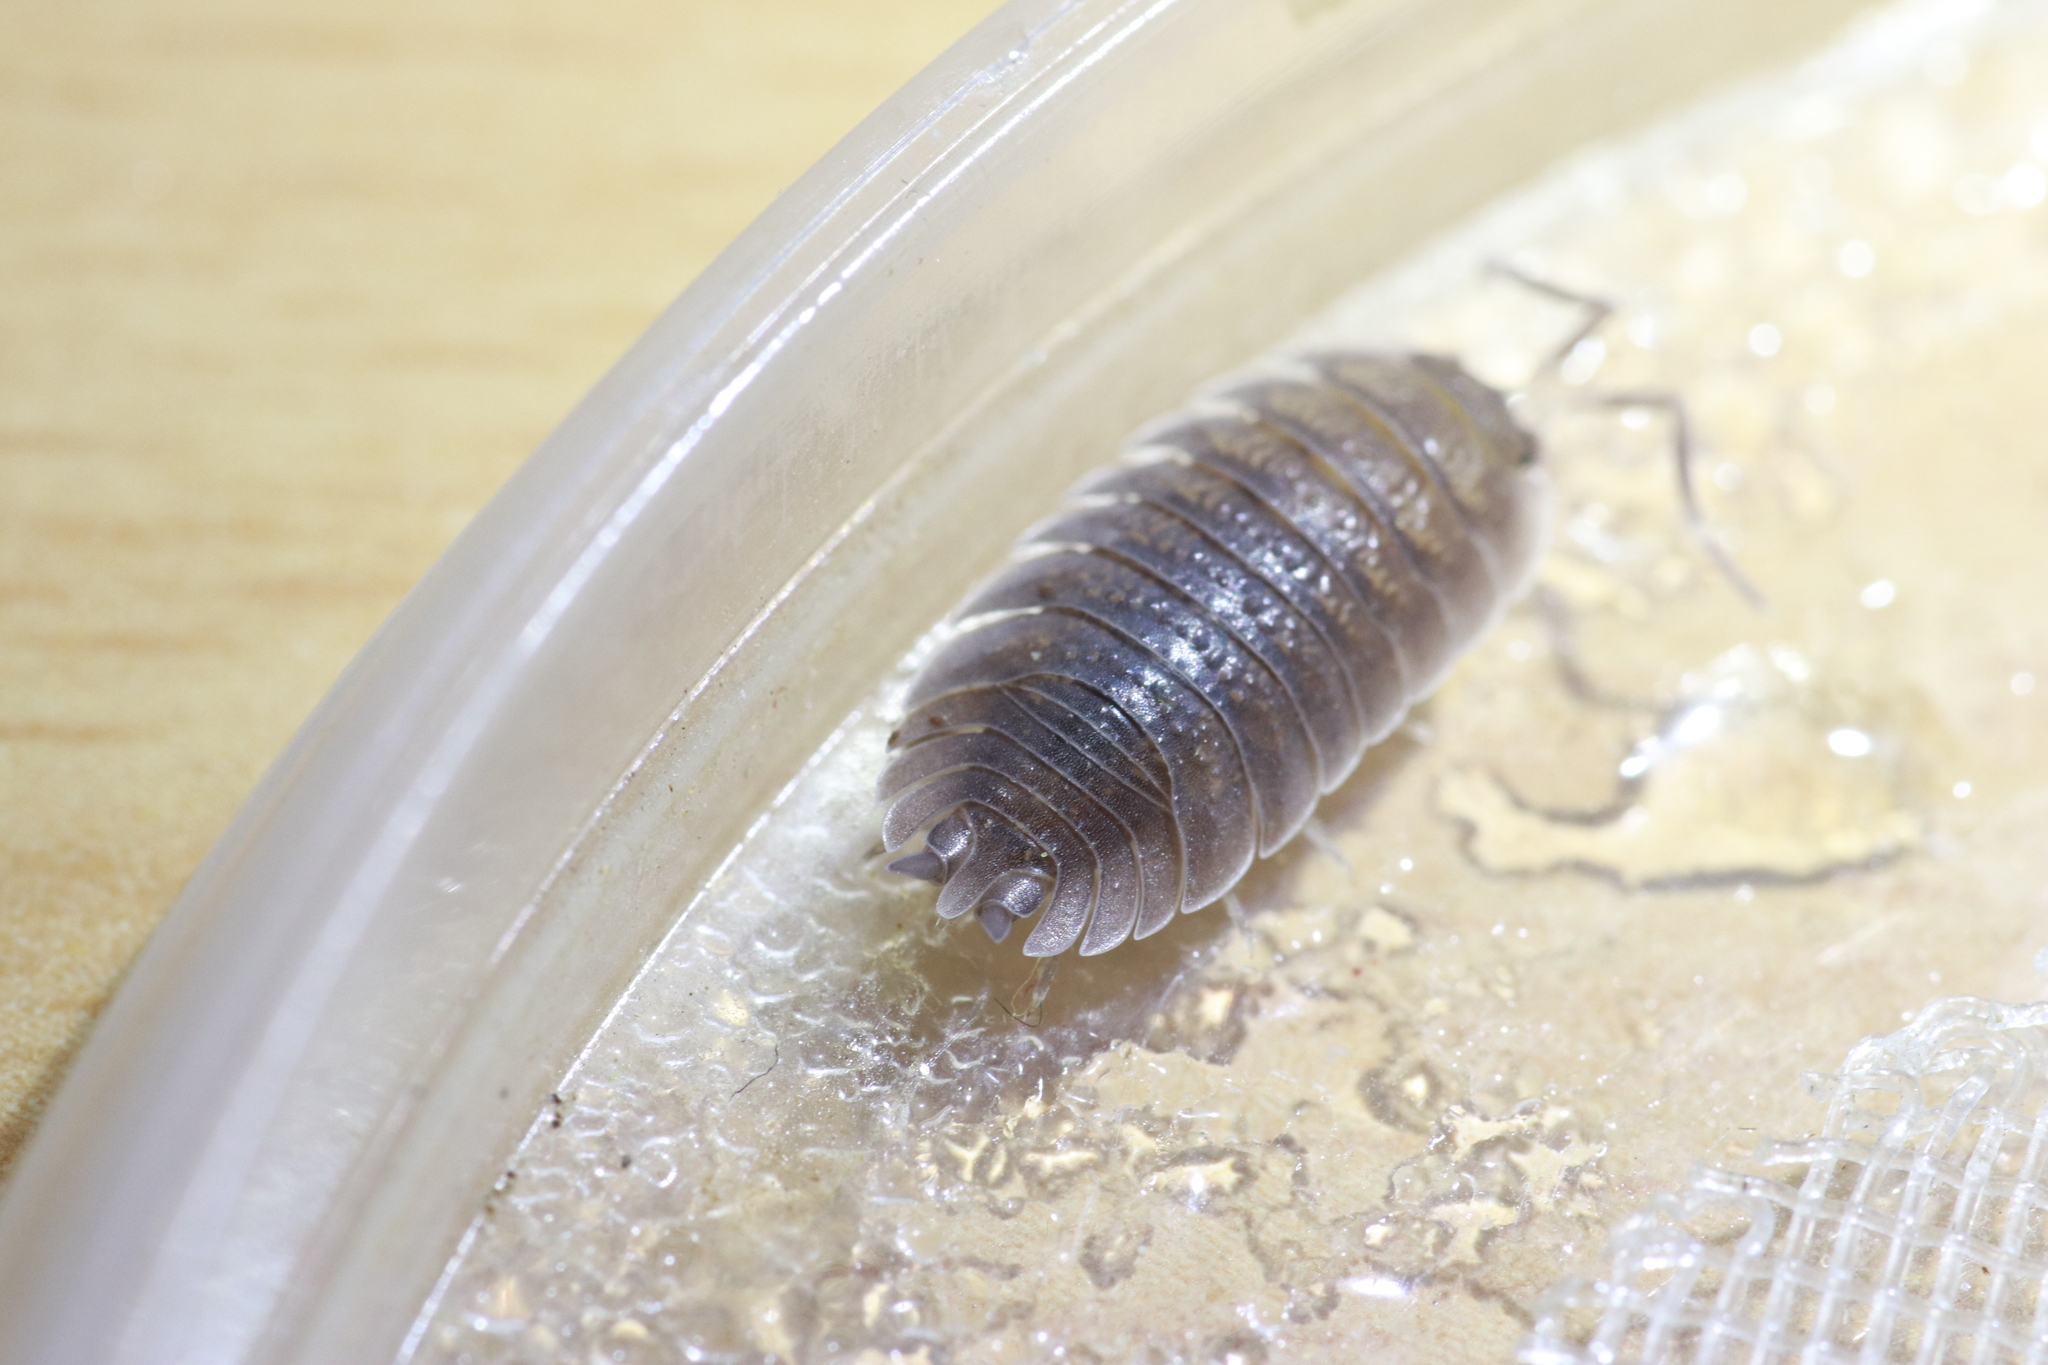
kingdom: Animalia
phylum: Arthropoda
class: Malacostraca
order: Isopoda
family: Porcellionidae
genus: Porcellio
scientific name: Porcellio incanus
